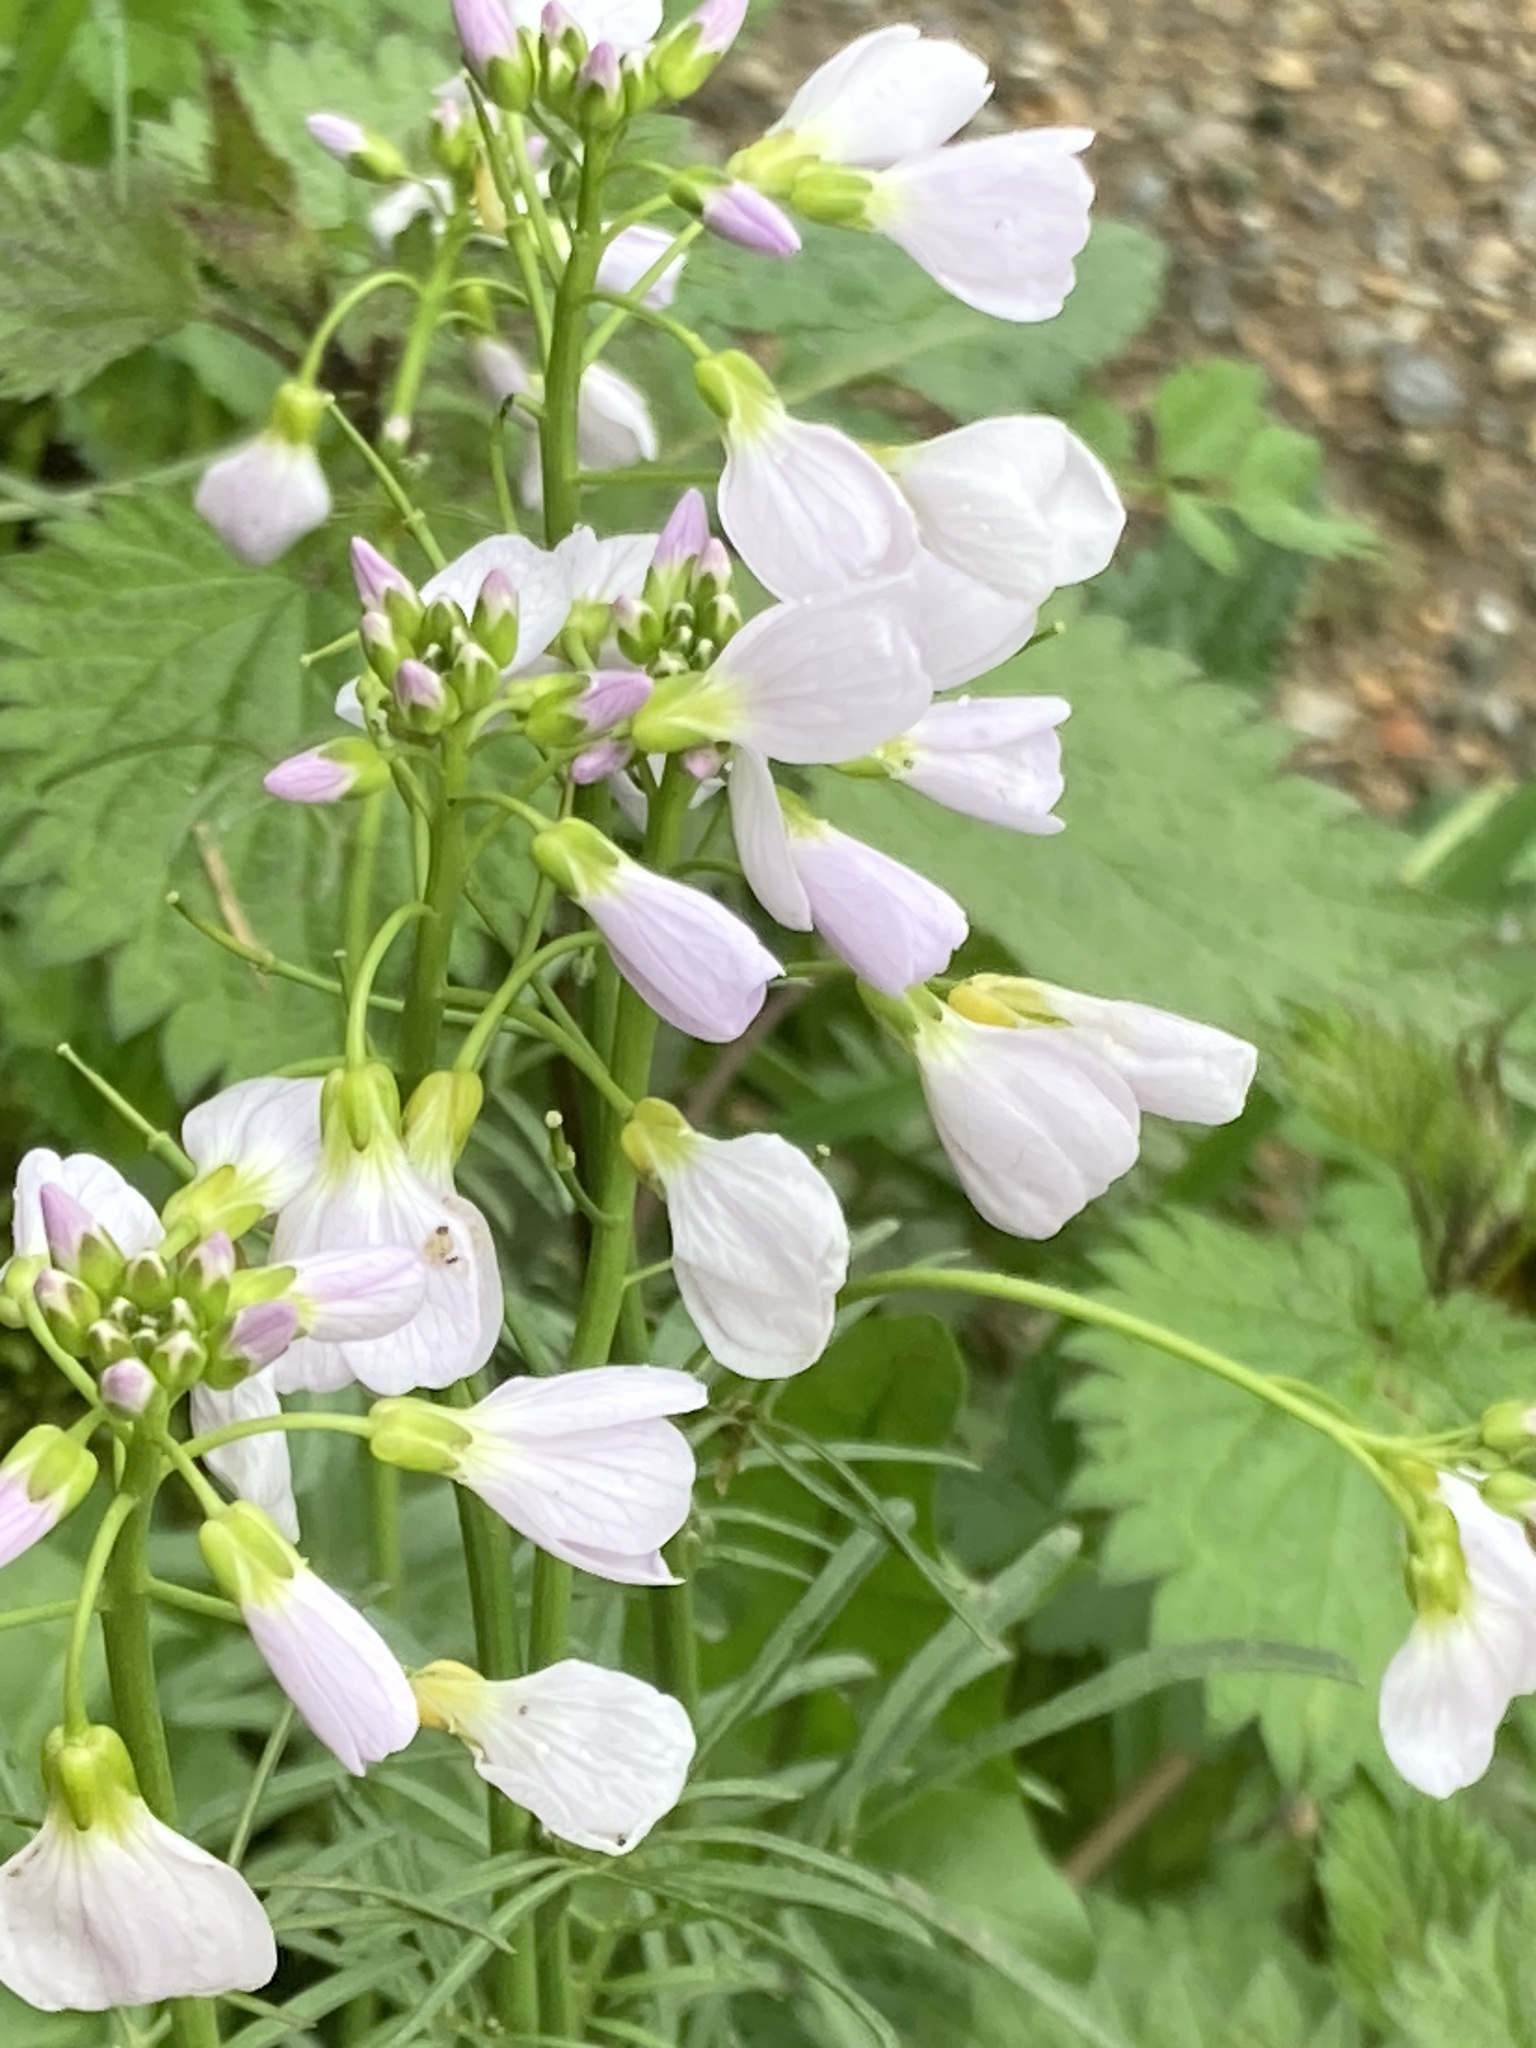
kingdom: Plantae
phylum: Tracheophyta
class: Magnoliopsida
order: Brassicales
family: Brassicaceae
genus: Cardamine
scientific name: Cardamine pratensis
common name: Cuckoo flower
